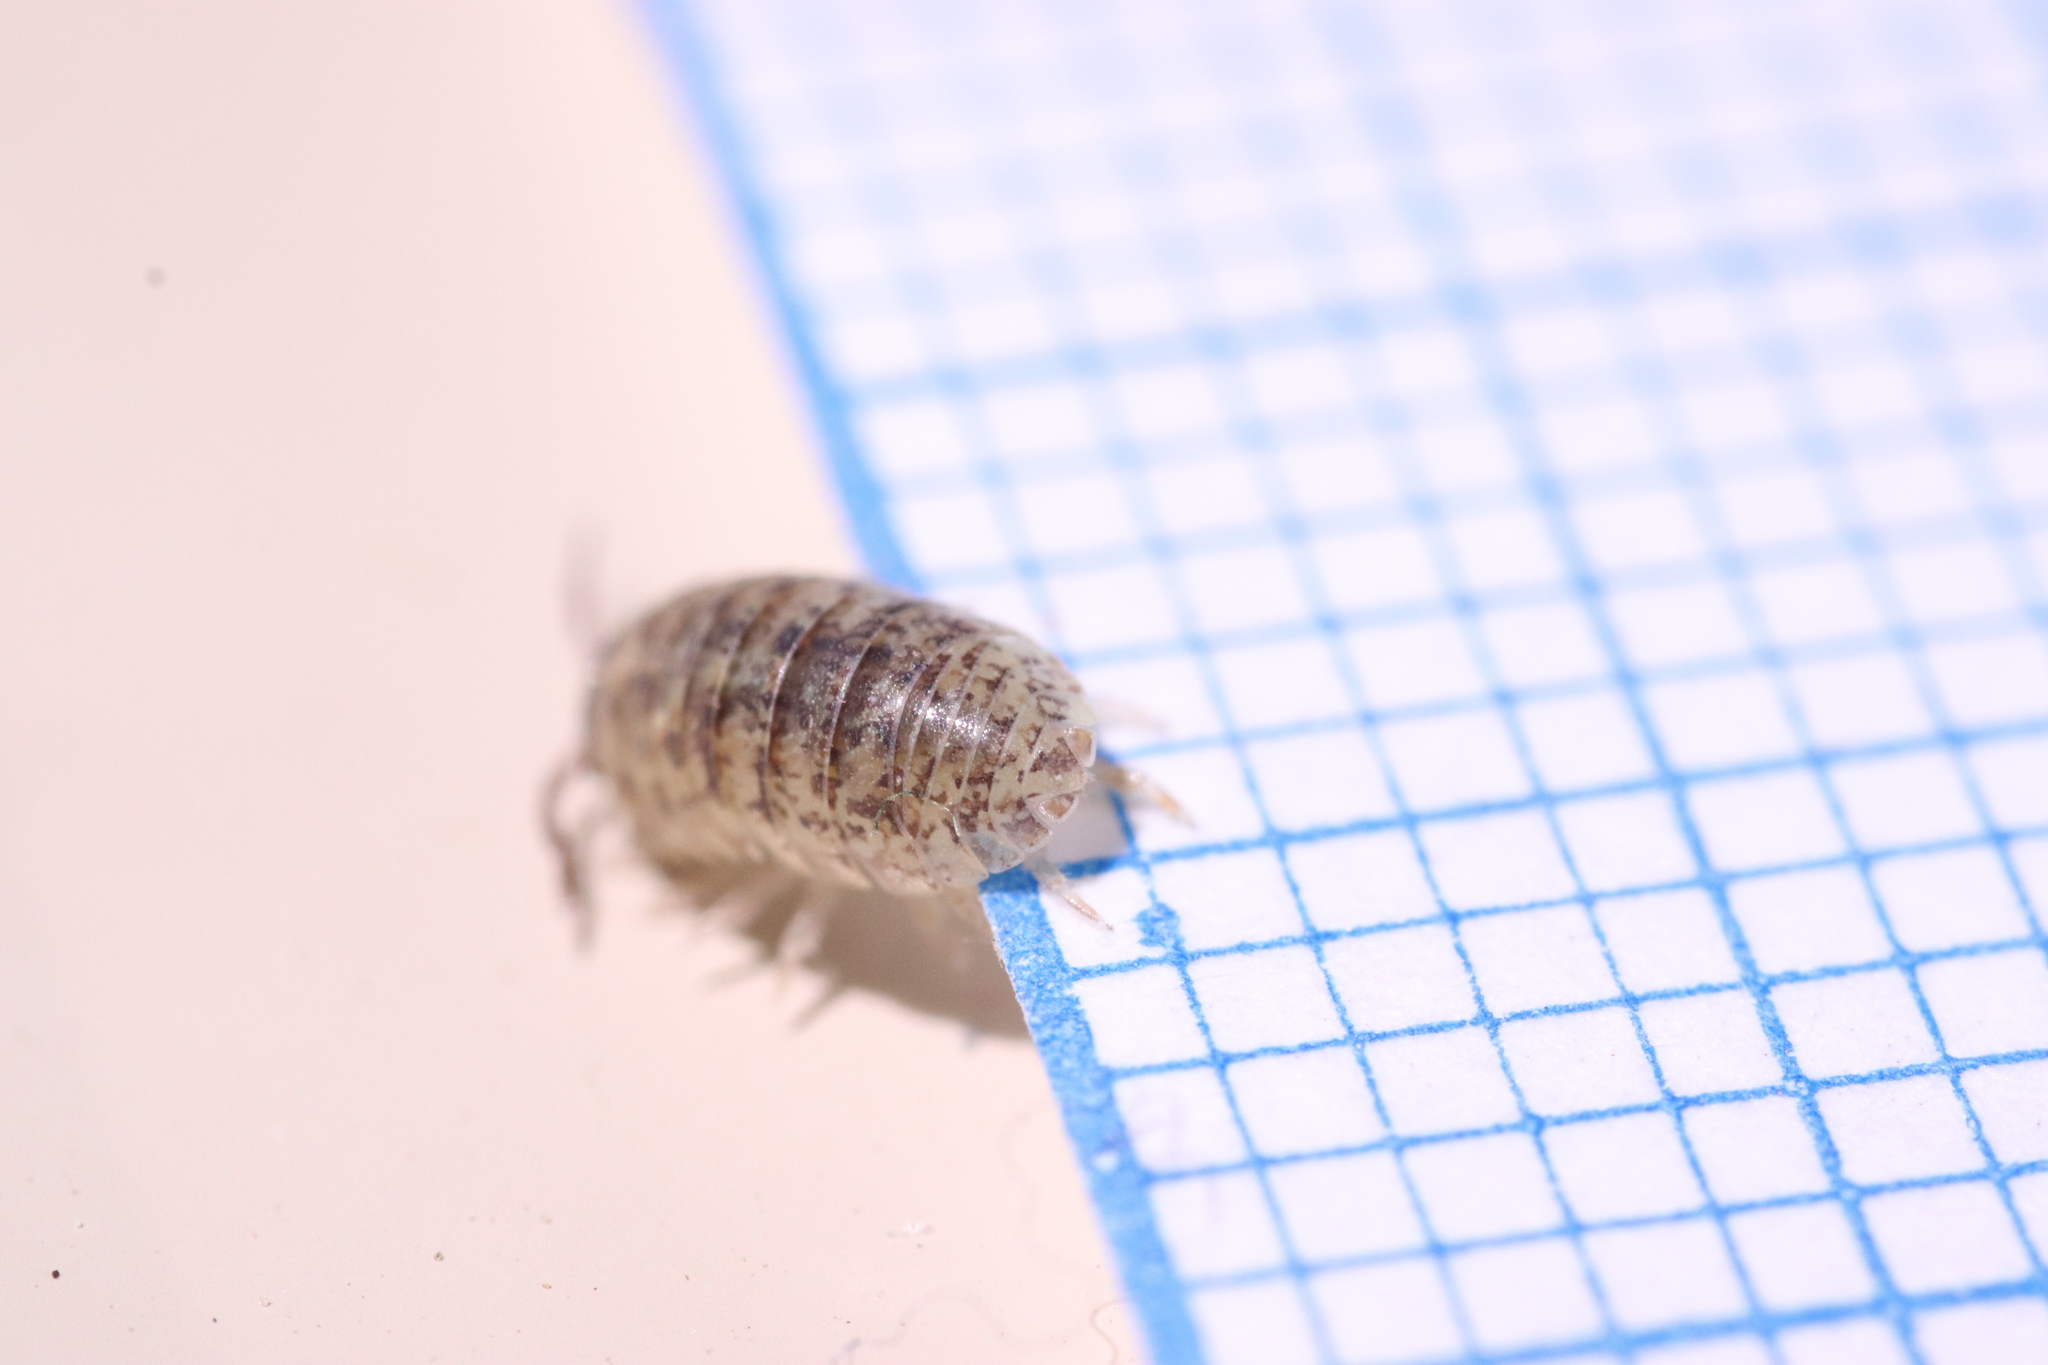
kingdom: Animalia
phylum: Arthropoda
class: Malacostraca
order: Isopoda
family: Armadillidiidae
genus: Armadillidium
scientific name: Armadillidium arcangelii
